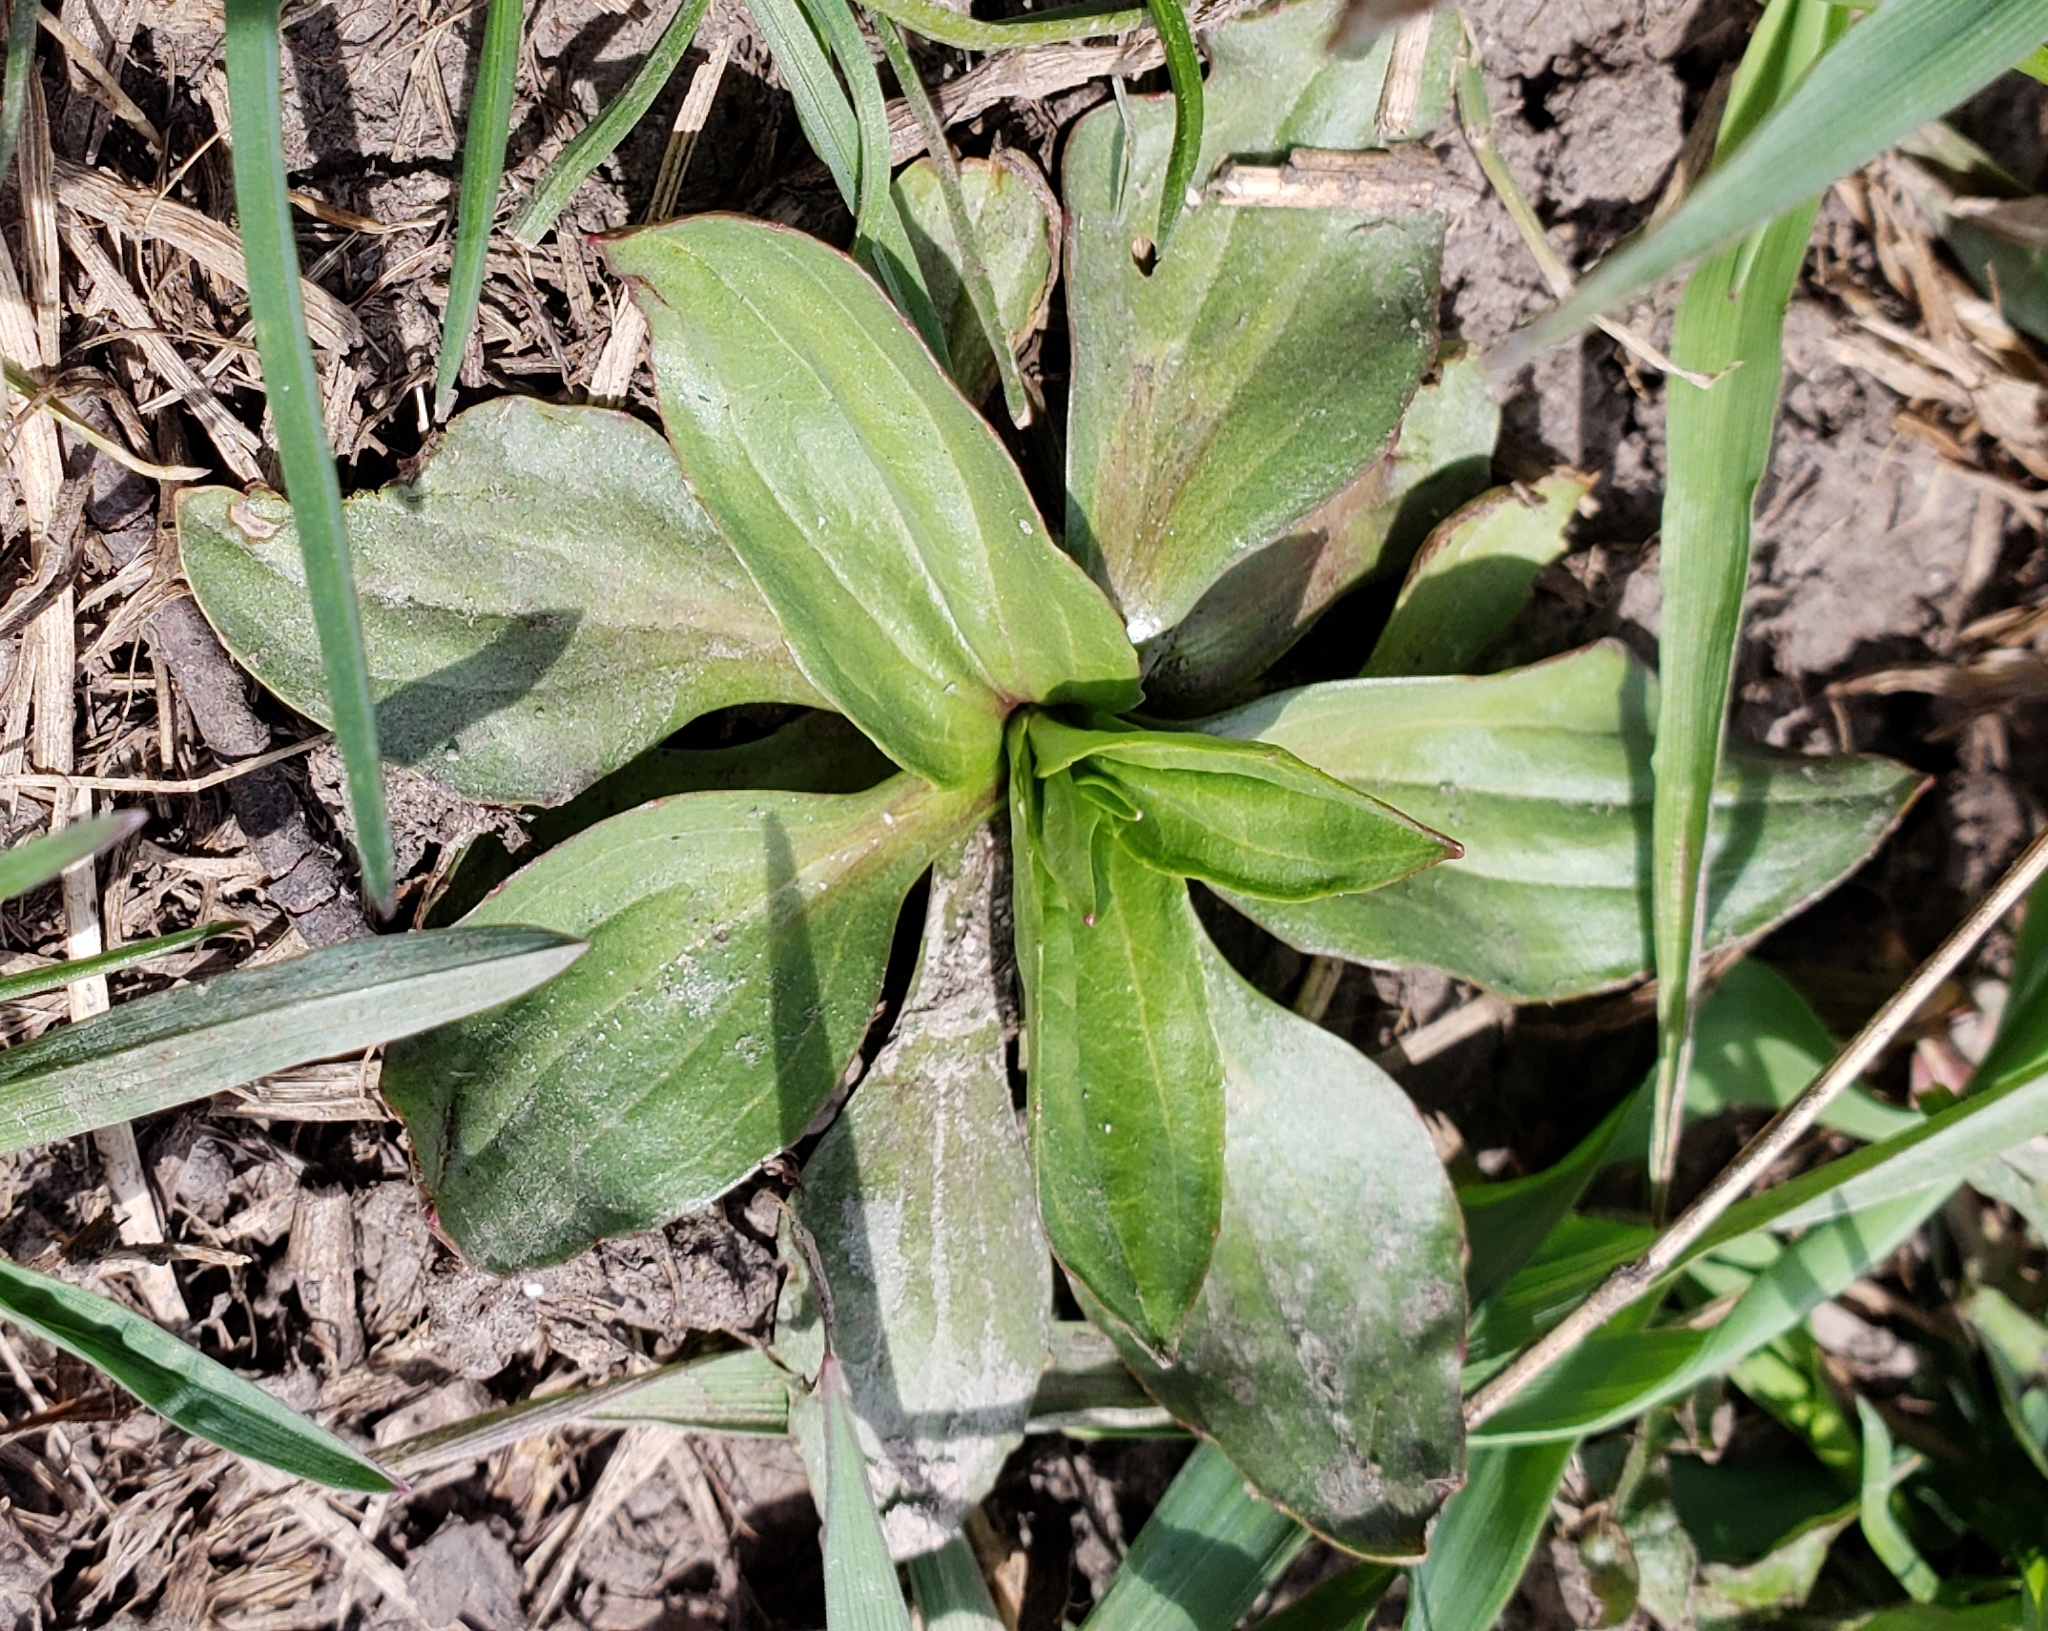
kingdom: Plantae
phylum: Tracheophyta
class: Magnoliopsida
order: Lamiales
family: Plantaginaceae
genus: Plantago
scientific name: Plantago major
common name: Common plantain
